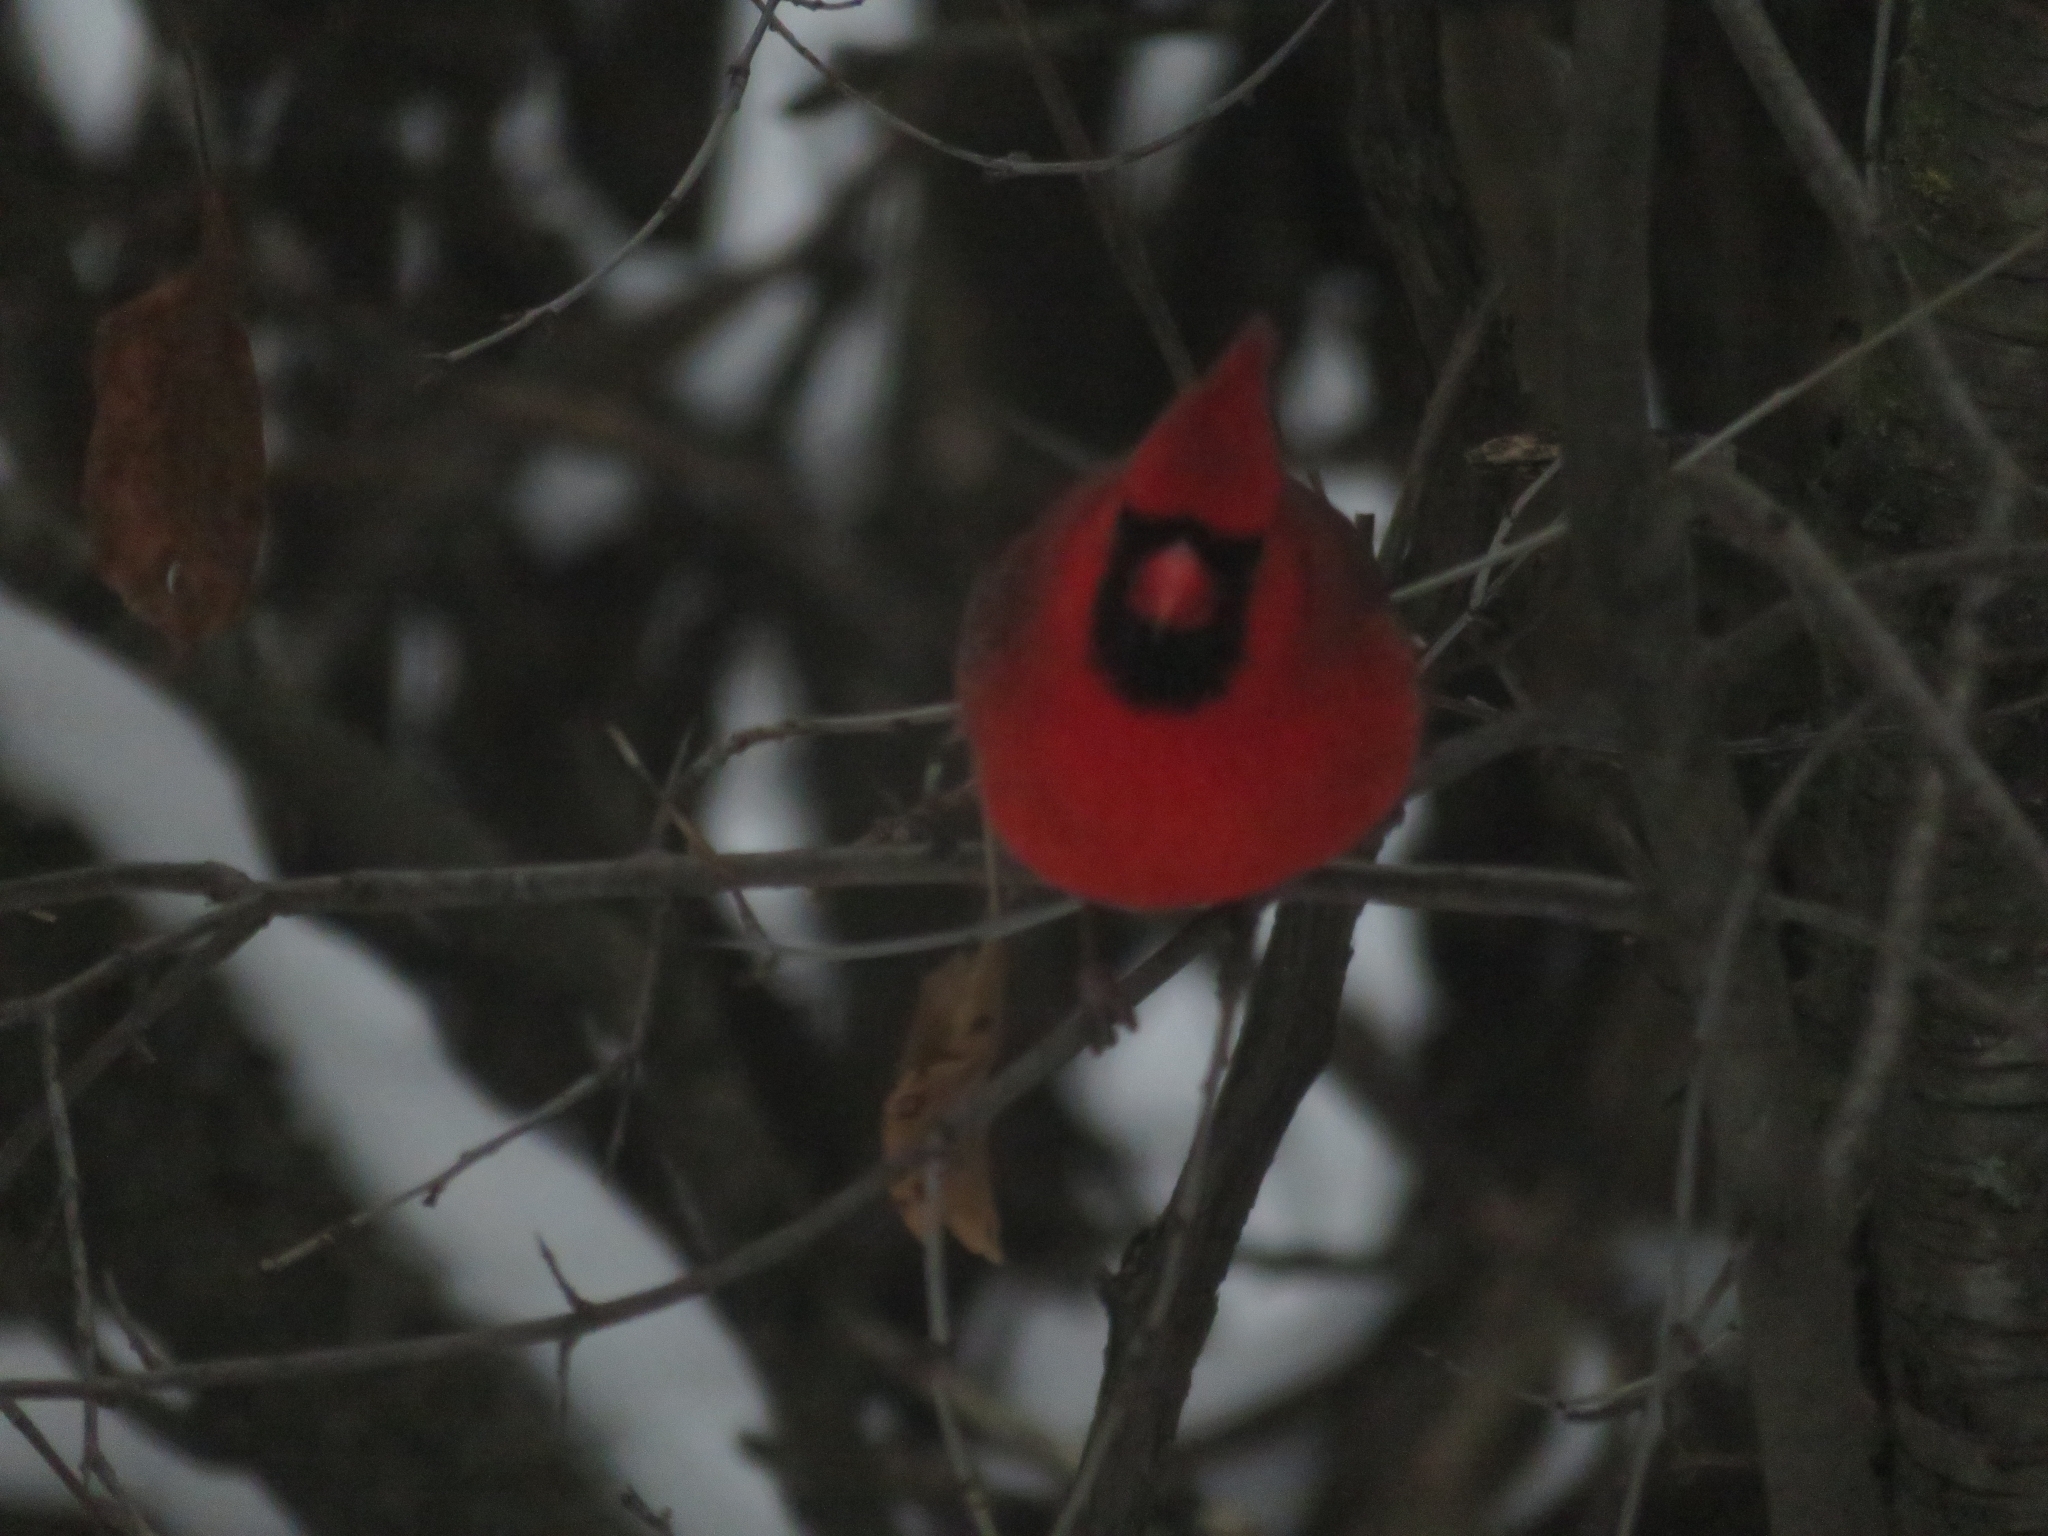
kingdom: Animalia
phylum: Chordata
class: Aves
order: Passeriformes
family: Cardinalidae
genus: Cardinalis
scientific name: Cardinalis cardinalis
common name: Northern cardinal
